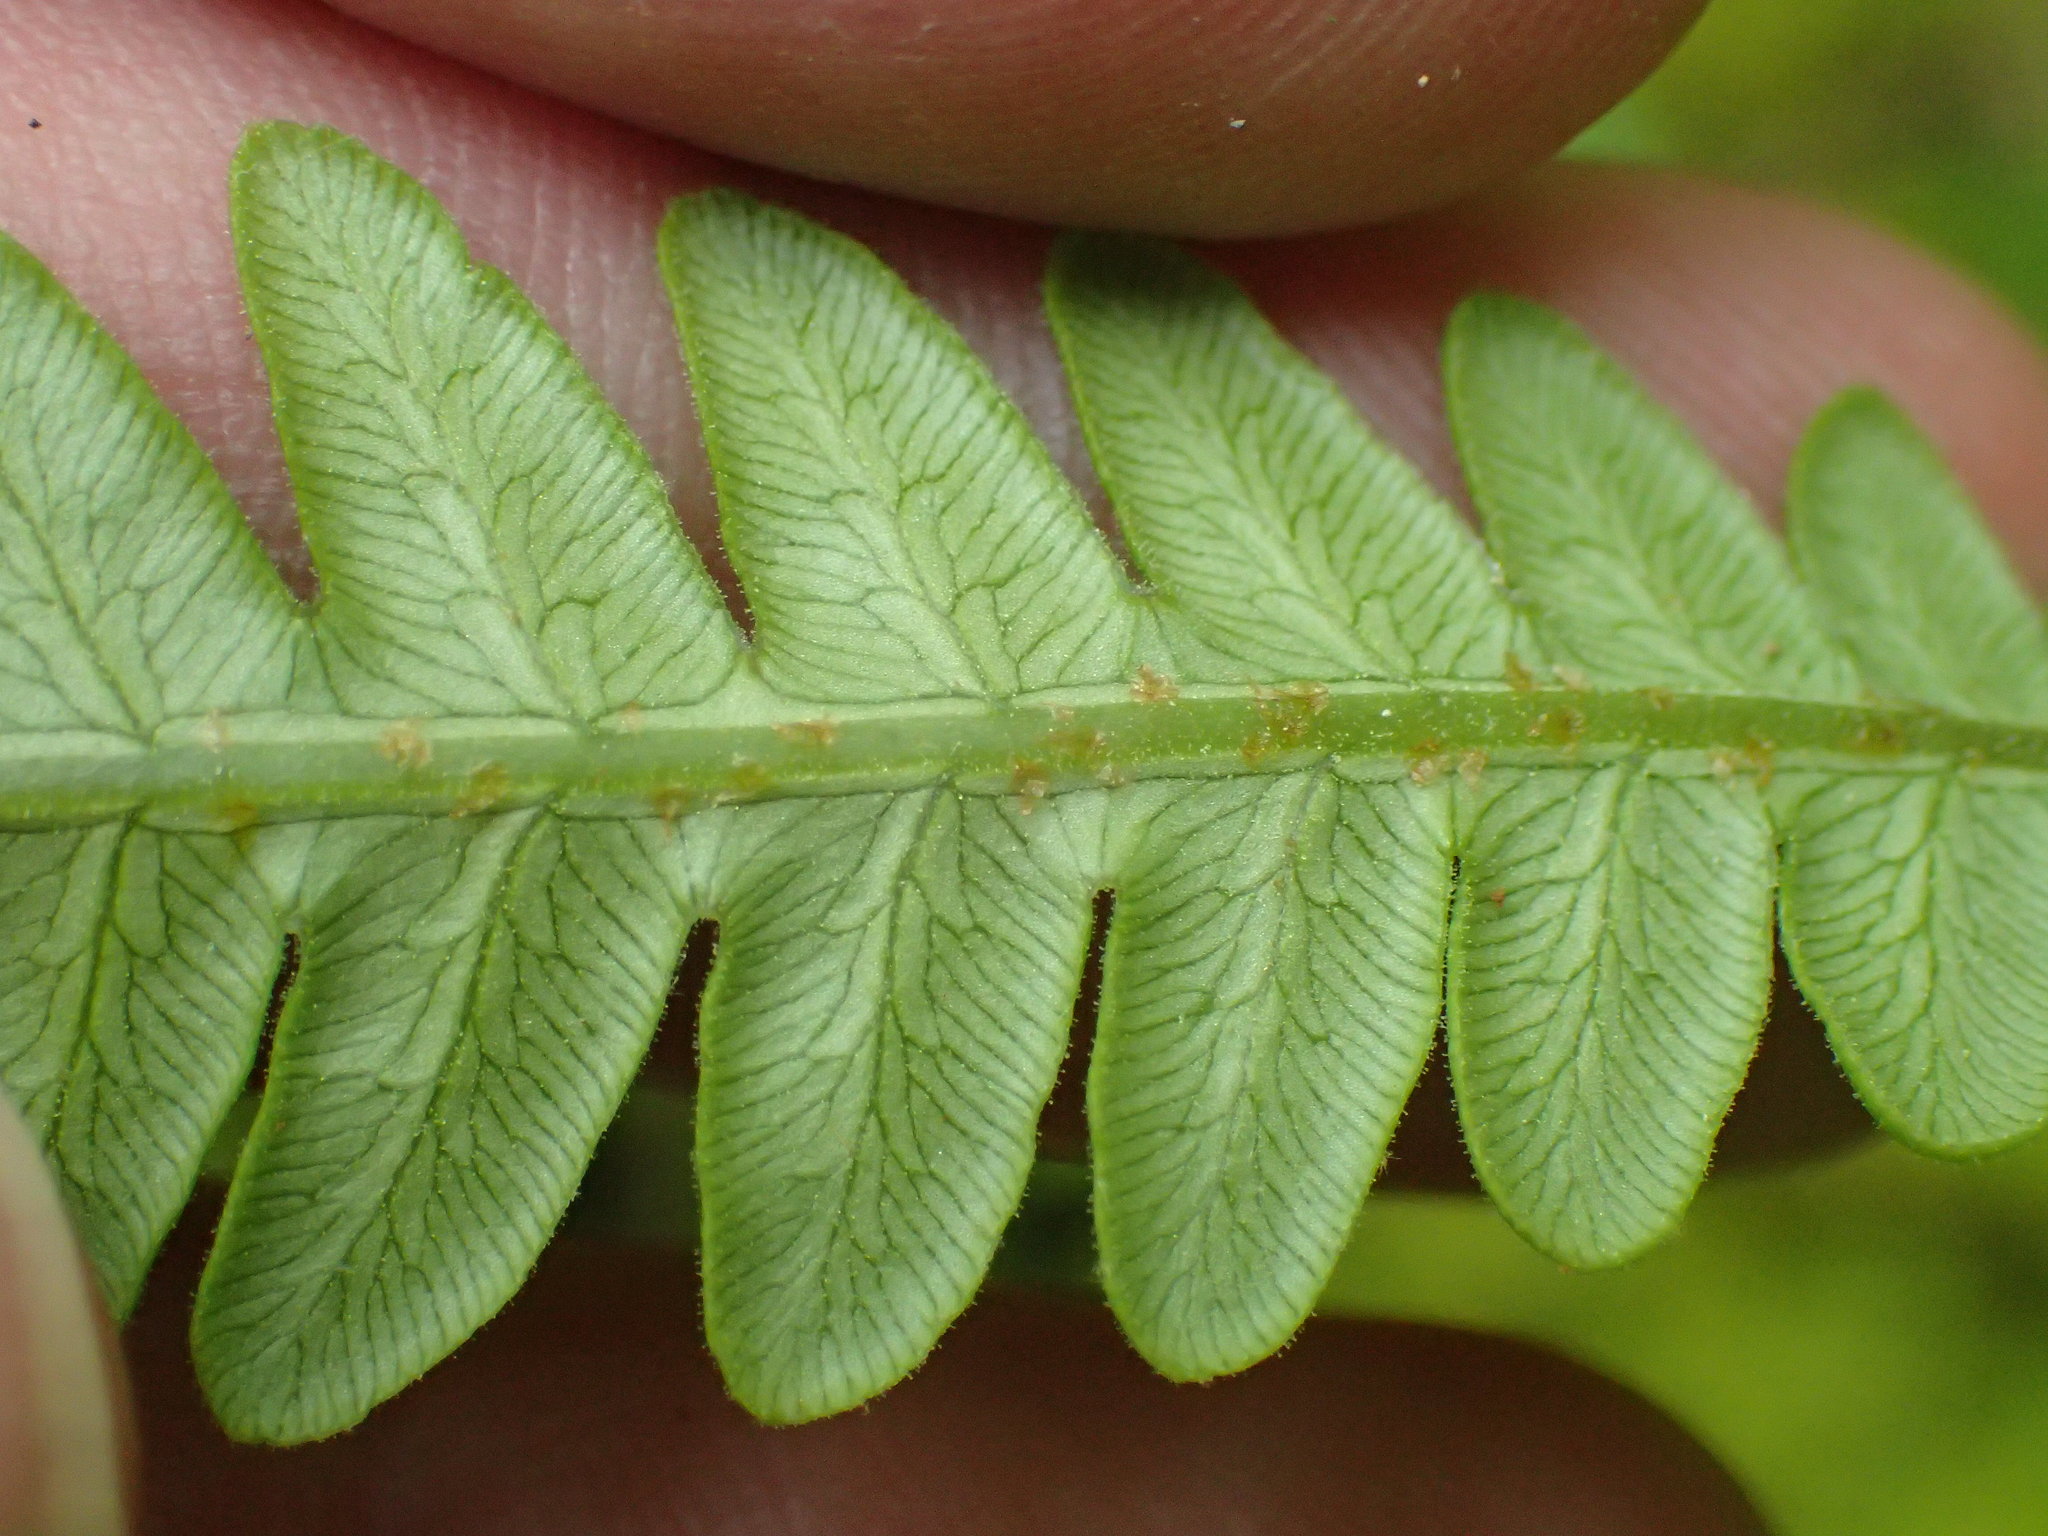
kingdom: Plantae
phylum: Tracheophyta
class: Polypodiopsida
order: Polypodiales
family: Blechnaceae
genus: Anchistea
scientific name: Anchistea virginica
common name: Virginia chain fern
